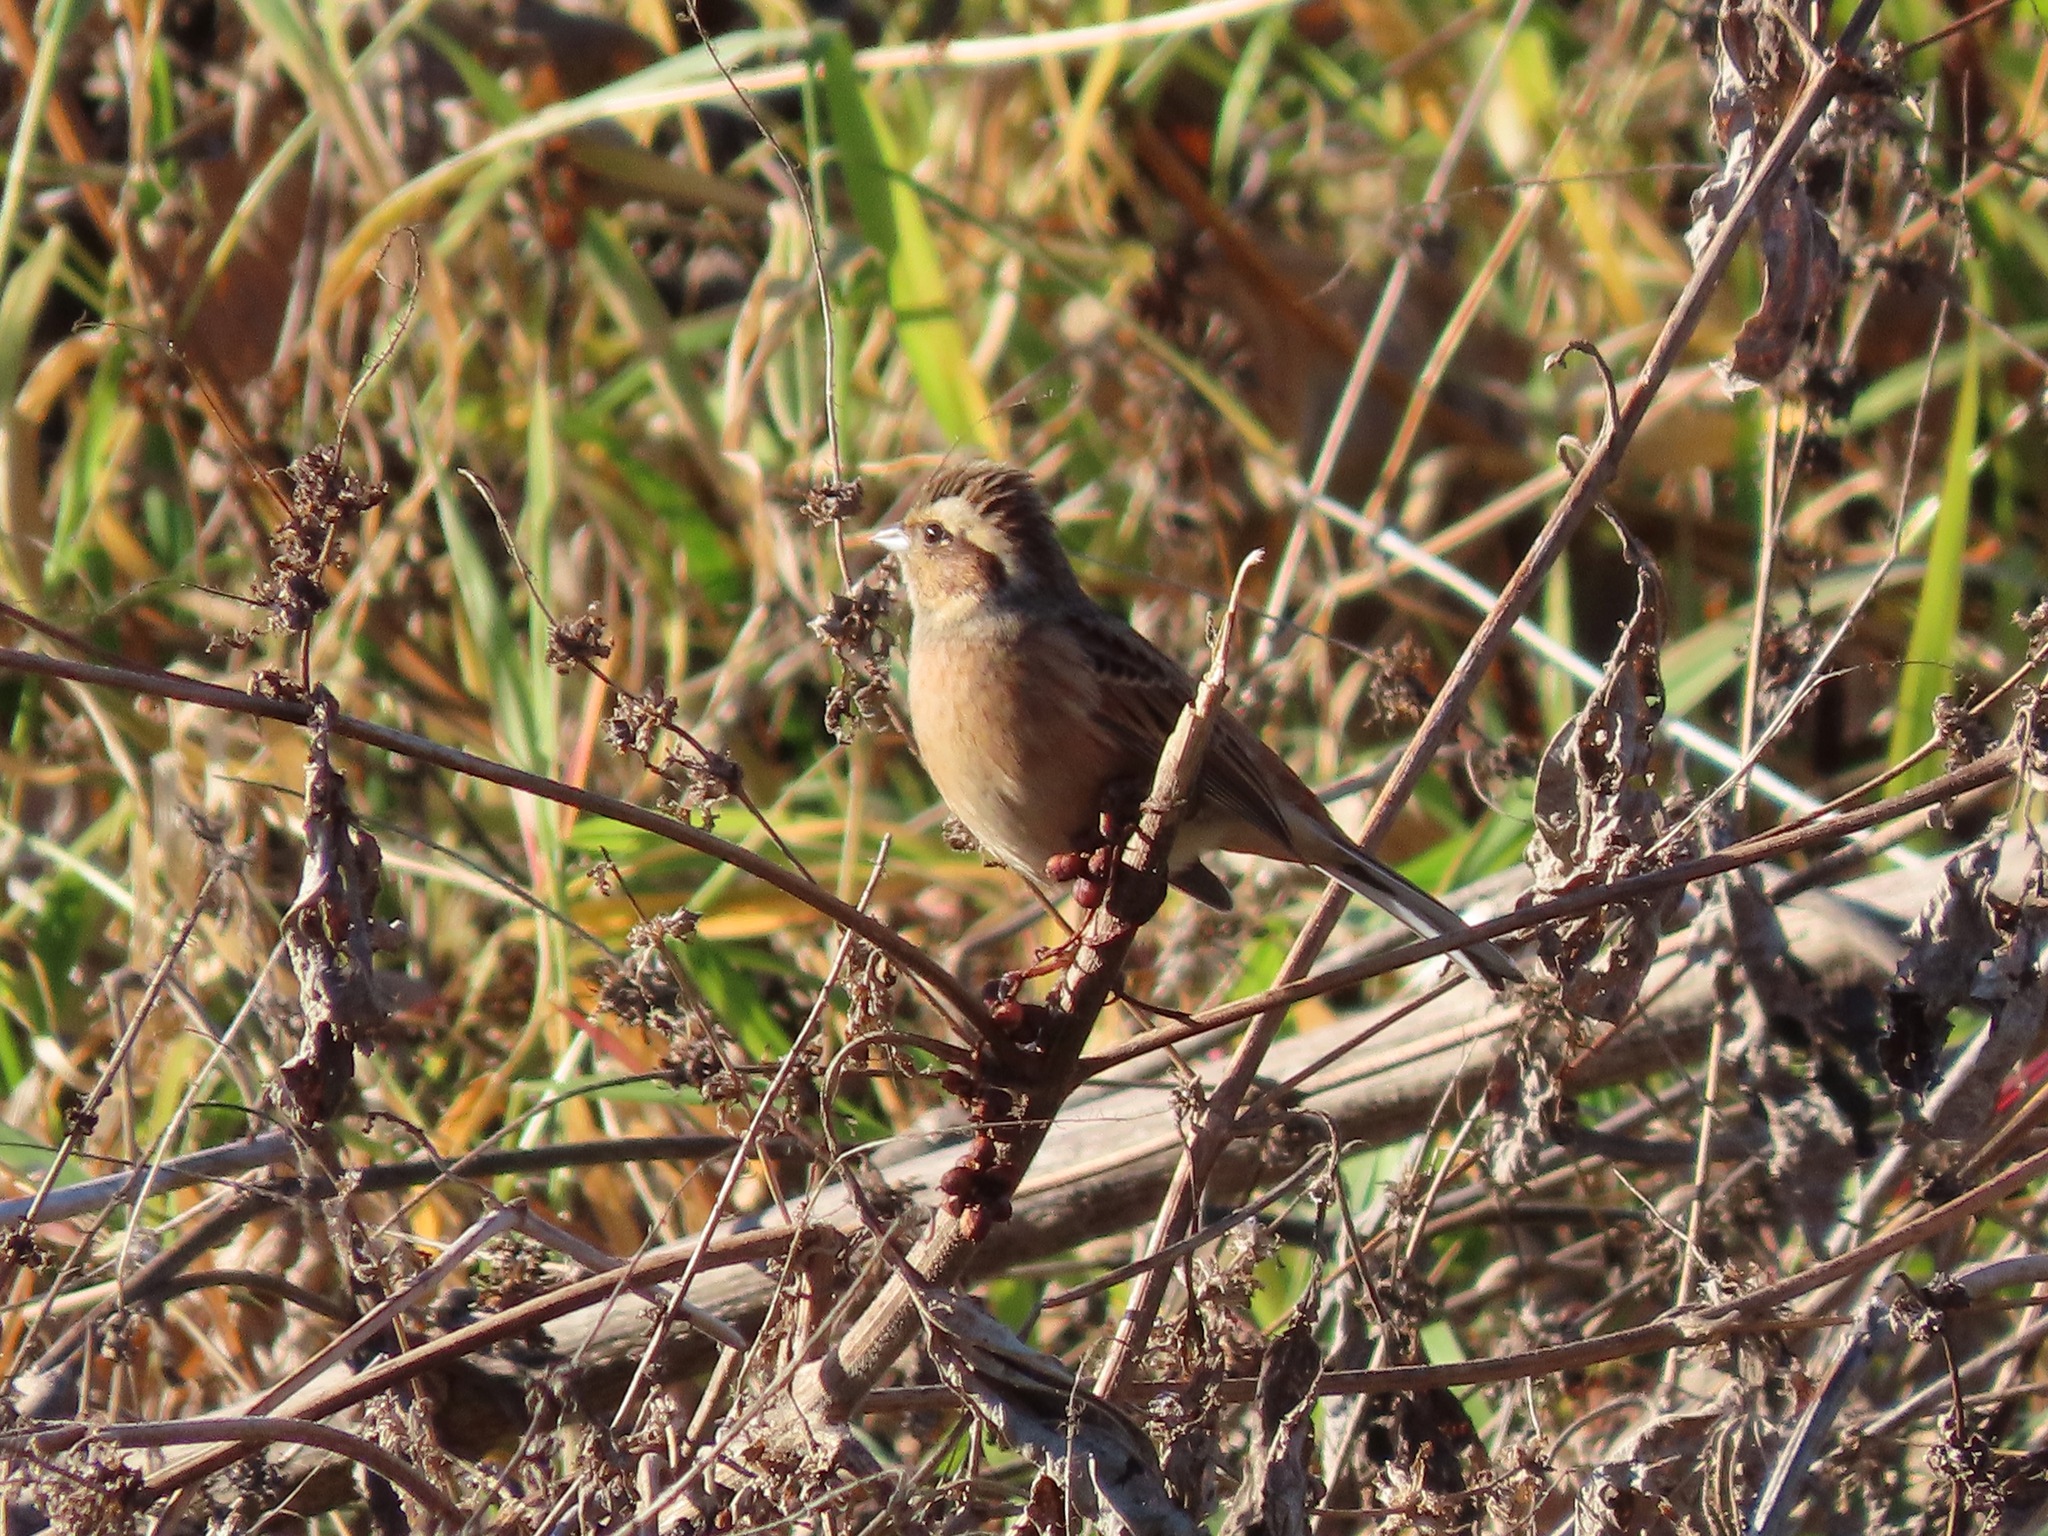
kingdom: Animalia
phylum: Chordata
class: Aves
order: Passeriformes
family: Emberizidae
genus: Emberiza
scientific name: Emberiza cioides
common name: Meadow bunting
